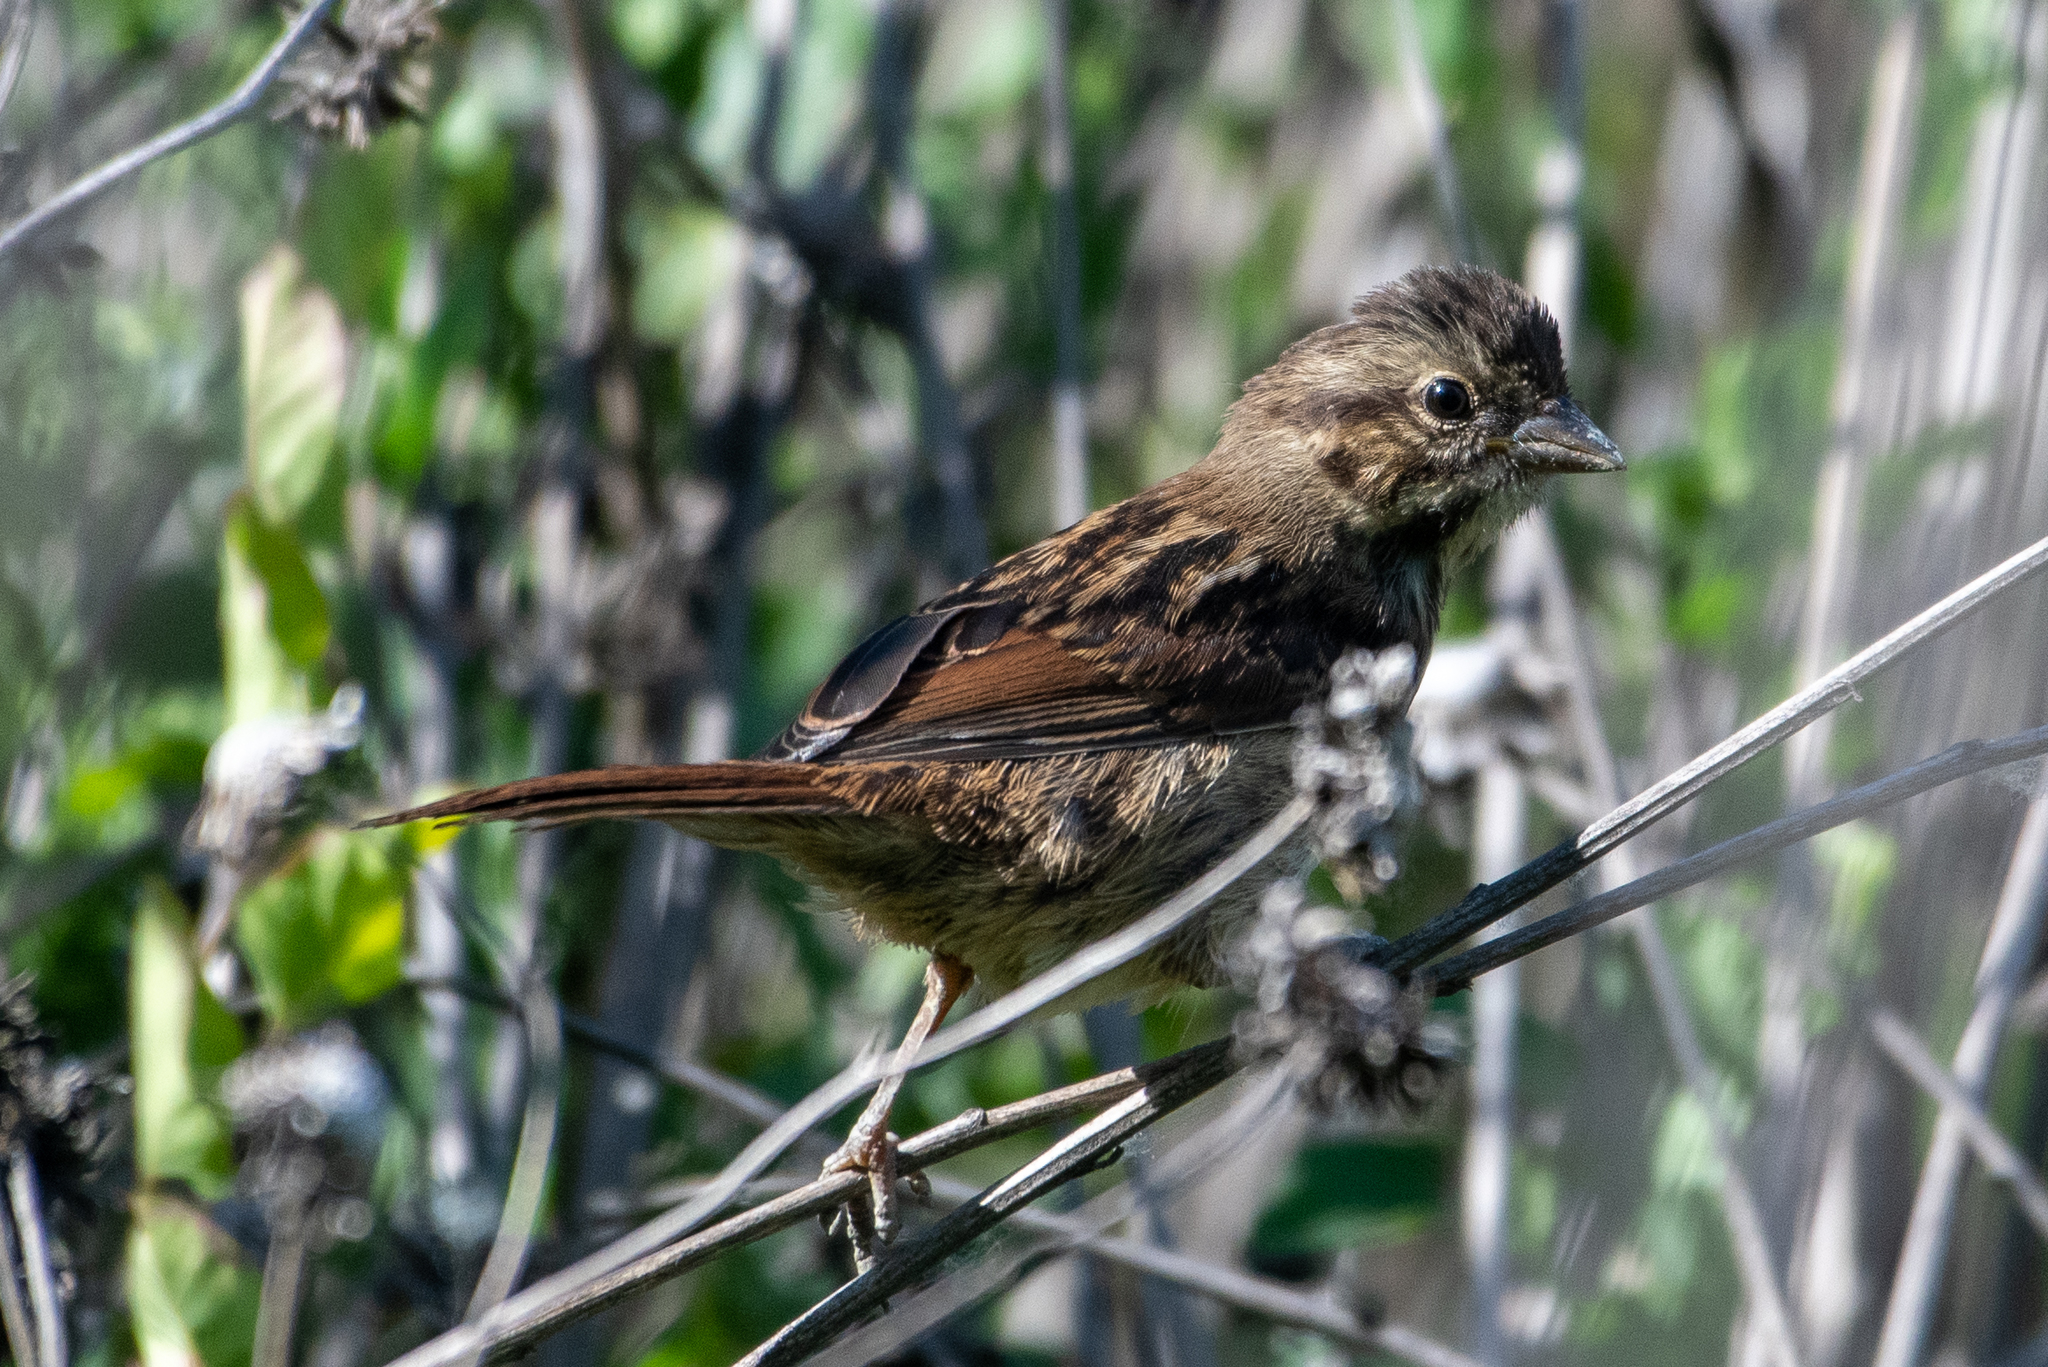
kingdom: Animalia
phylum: Chordata
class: Aves
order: Passeriformes
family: Passerellidae
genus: Melospiza
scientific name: Melospiza melodia
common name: Song sparrow
